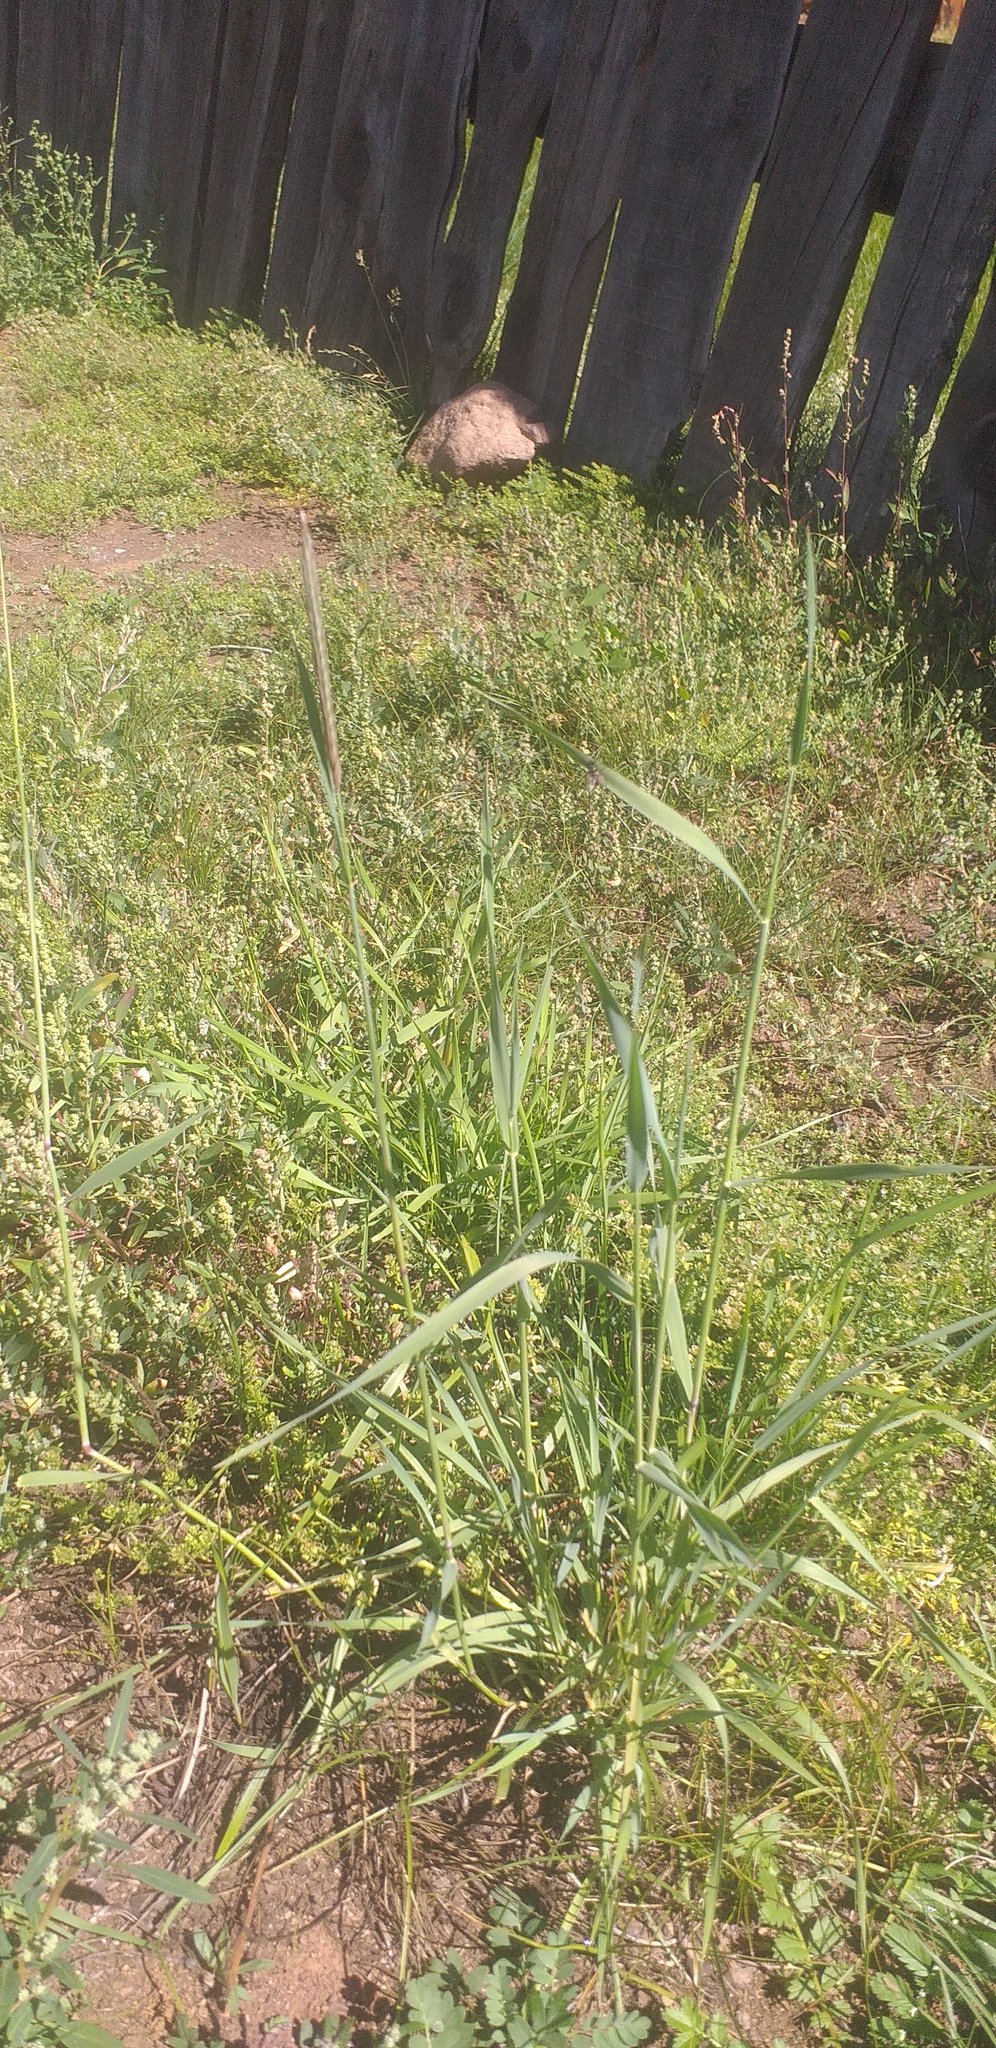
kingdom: Plantae
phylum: Tracheophyta
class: Liliopsida
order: Poales
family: Poaceae
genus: Elymus
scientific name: Elymus dahuricus
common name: Dahurian wild rye
